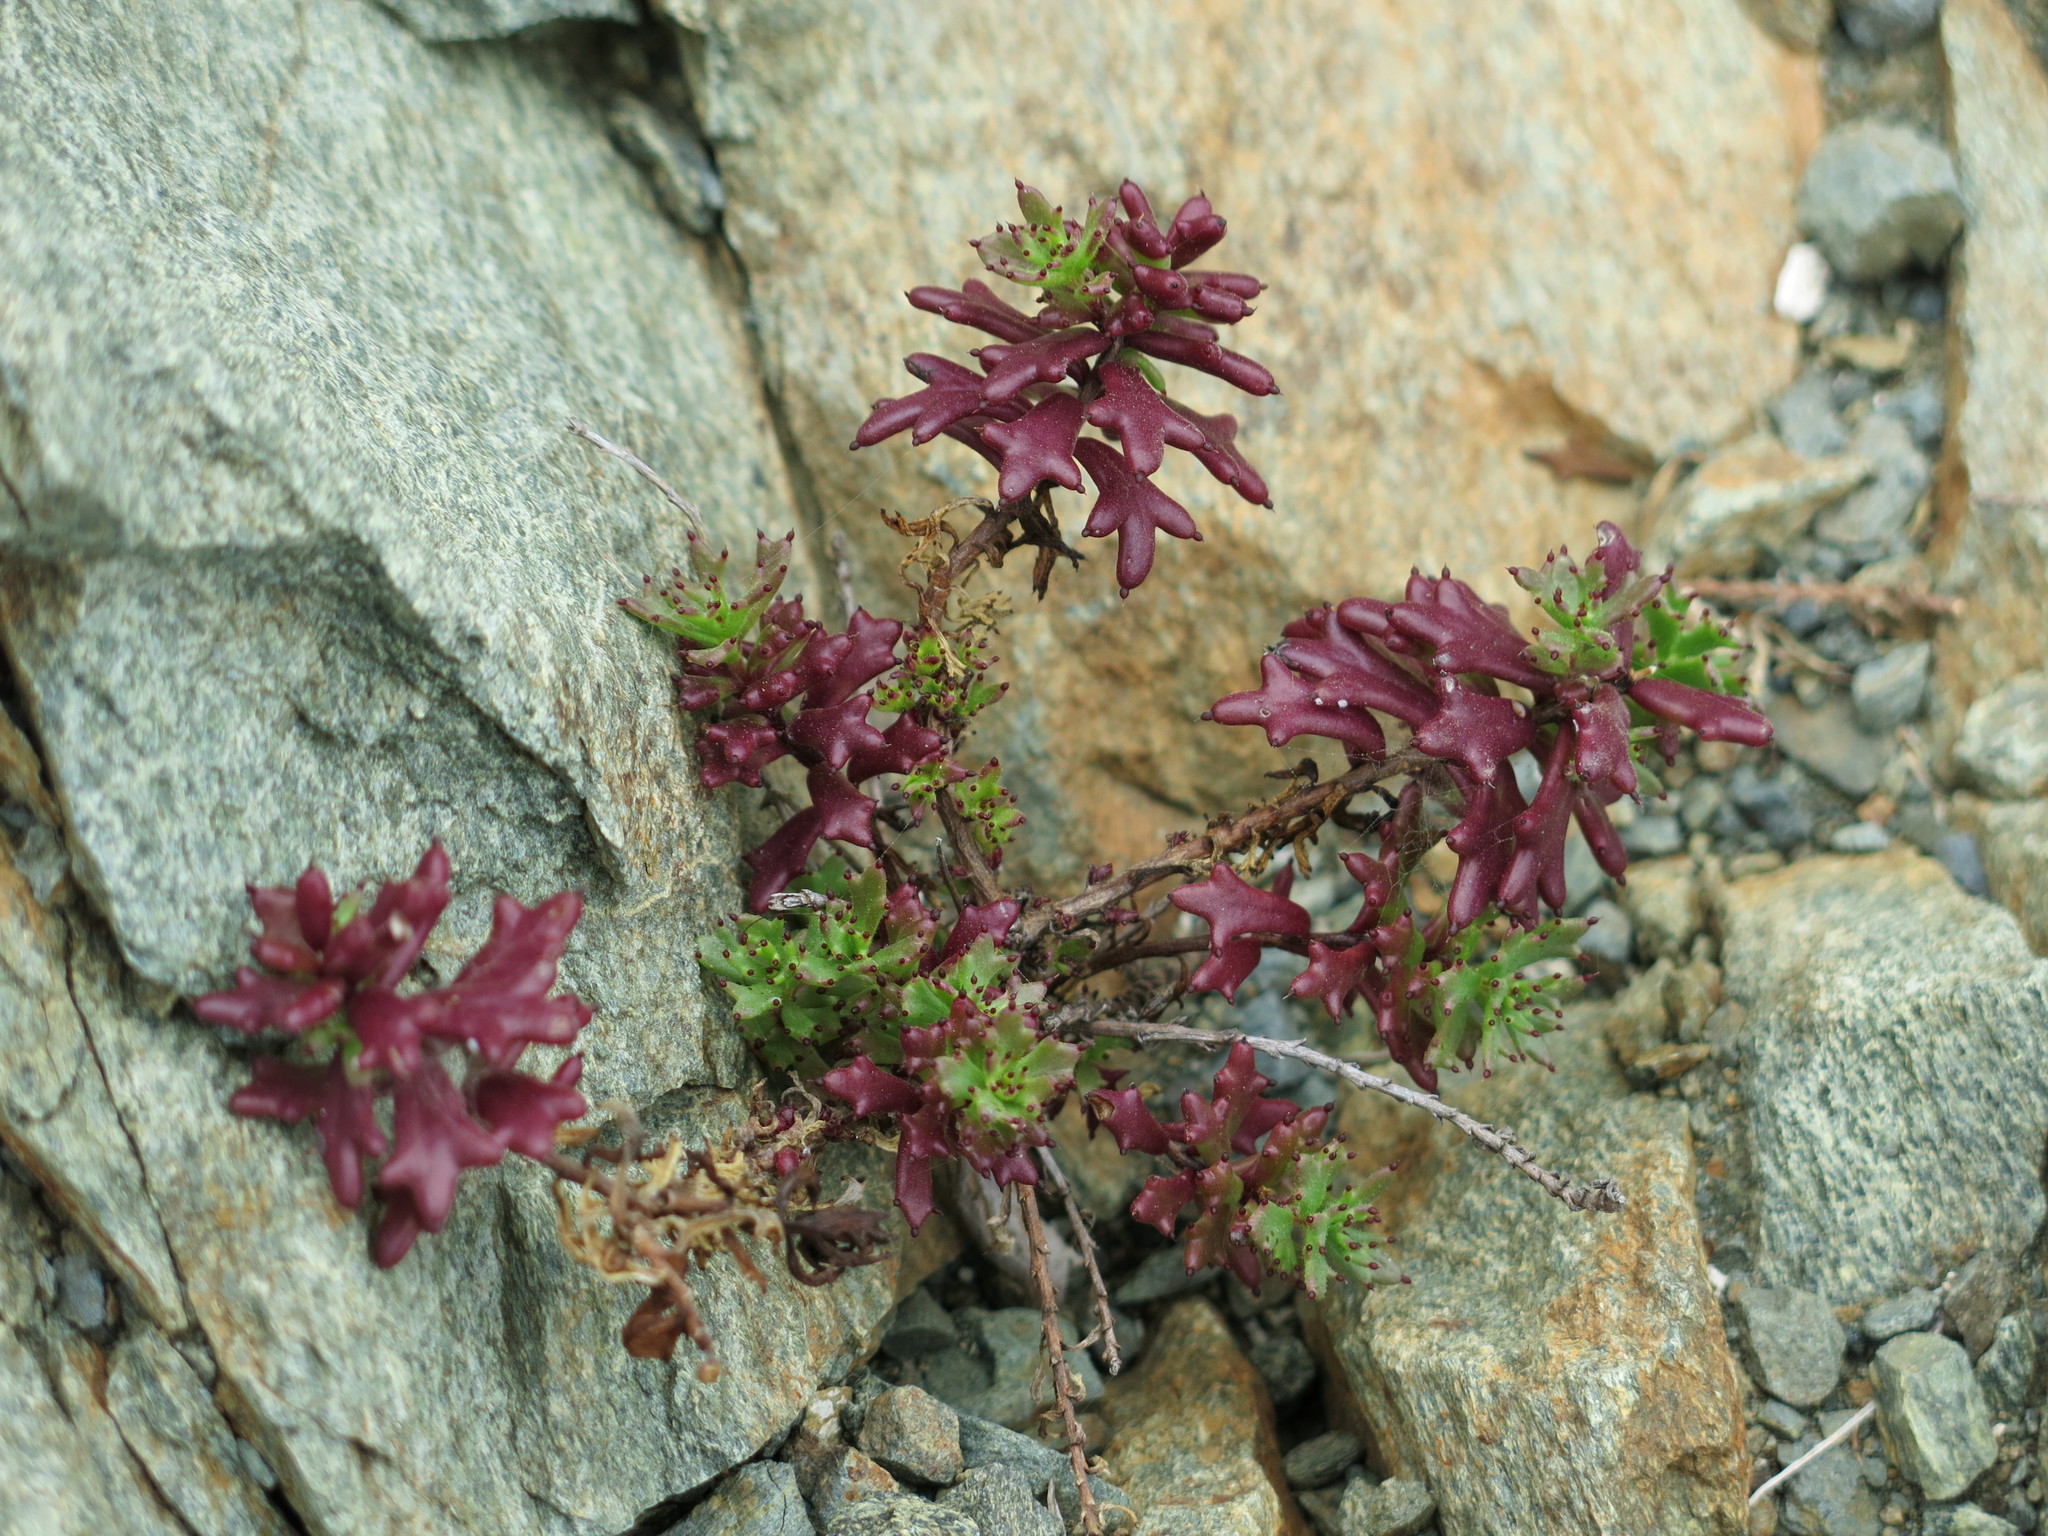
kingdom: Plantae
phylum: Tracheophyta
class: Magnoliopsida
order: Asterales
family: Asteraceae
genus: Bajacalia
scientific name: Bajacalia tridentata
